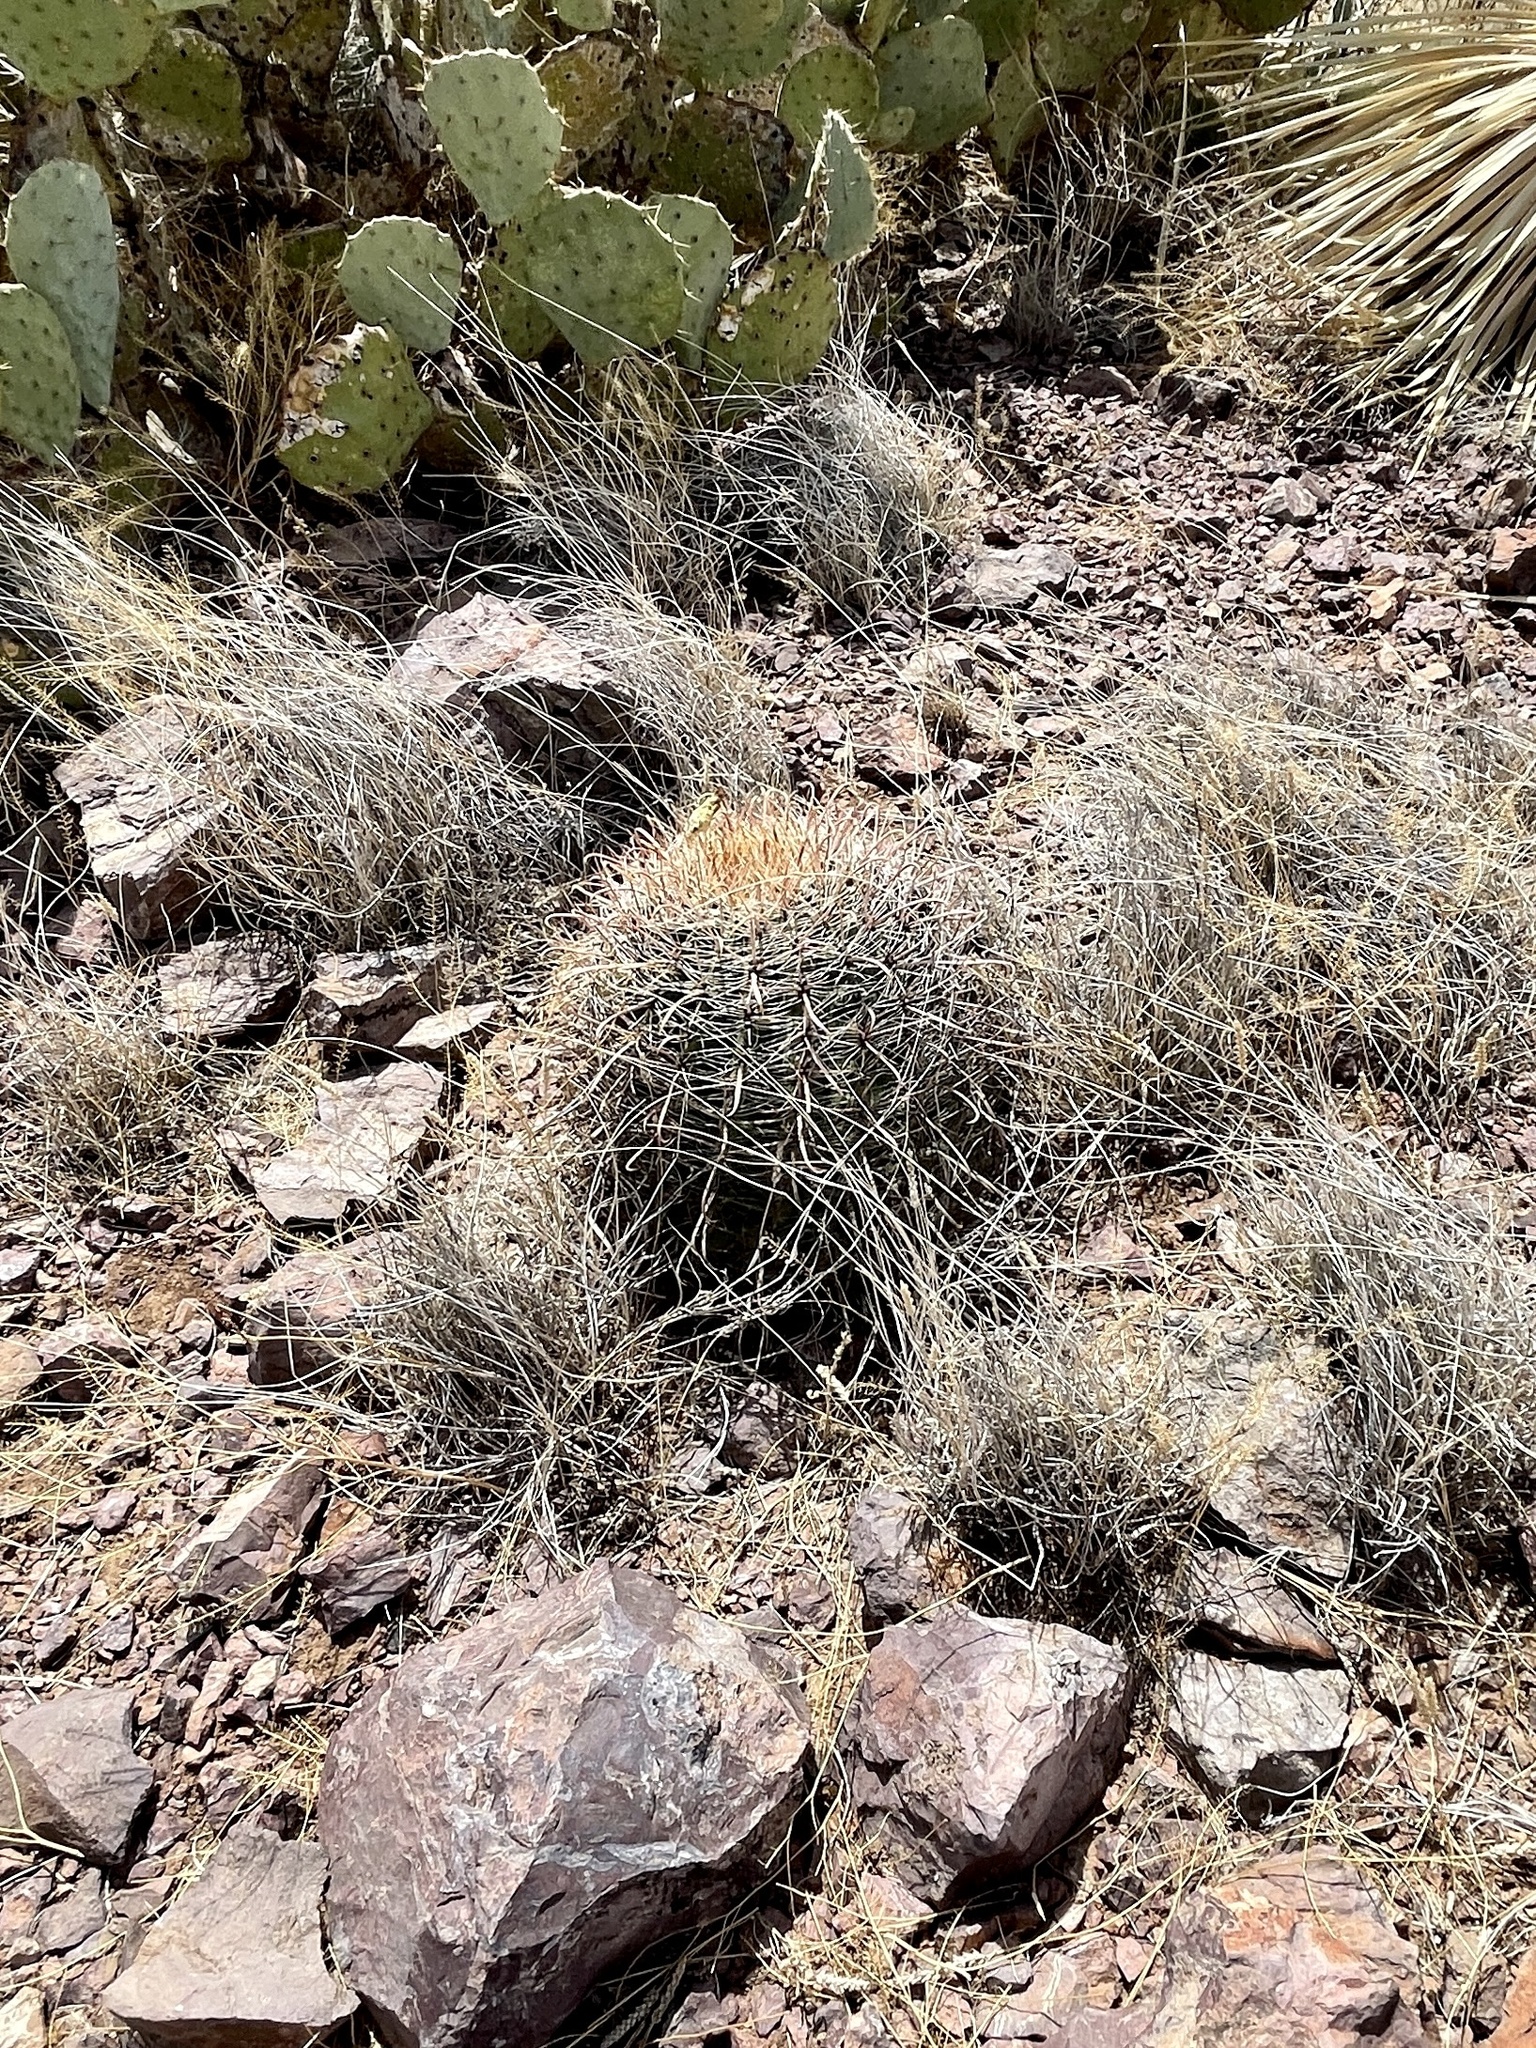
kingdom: Plantae
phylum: Tracheophyta
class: Magnoliopsida
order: Caryophyllales
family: Cactaceae
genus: Ferocactus
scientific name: Ferocactus wislizeni
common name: Candy barrel cactus
